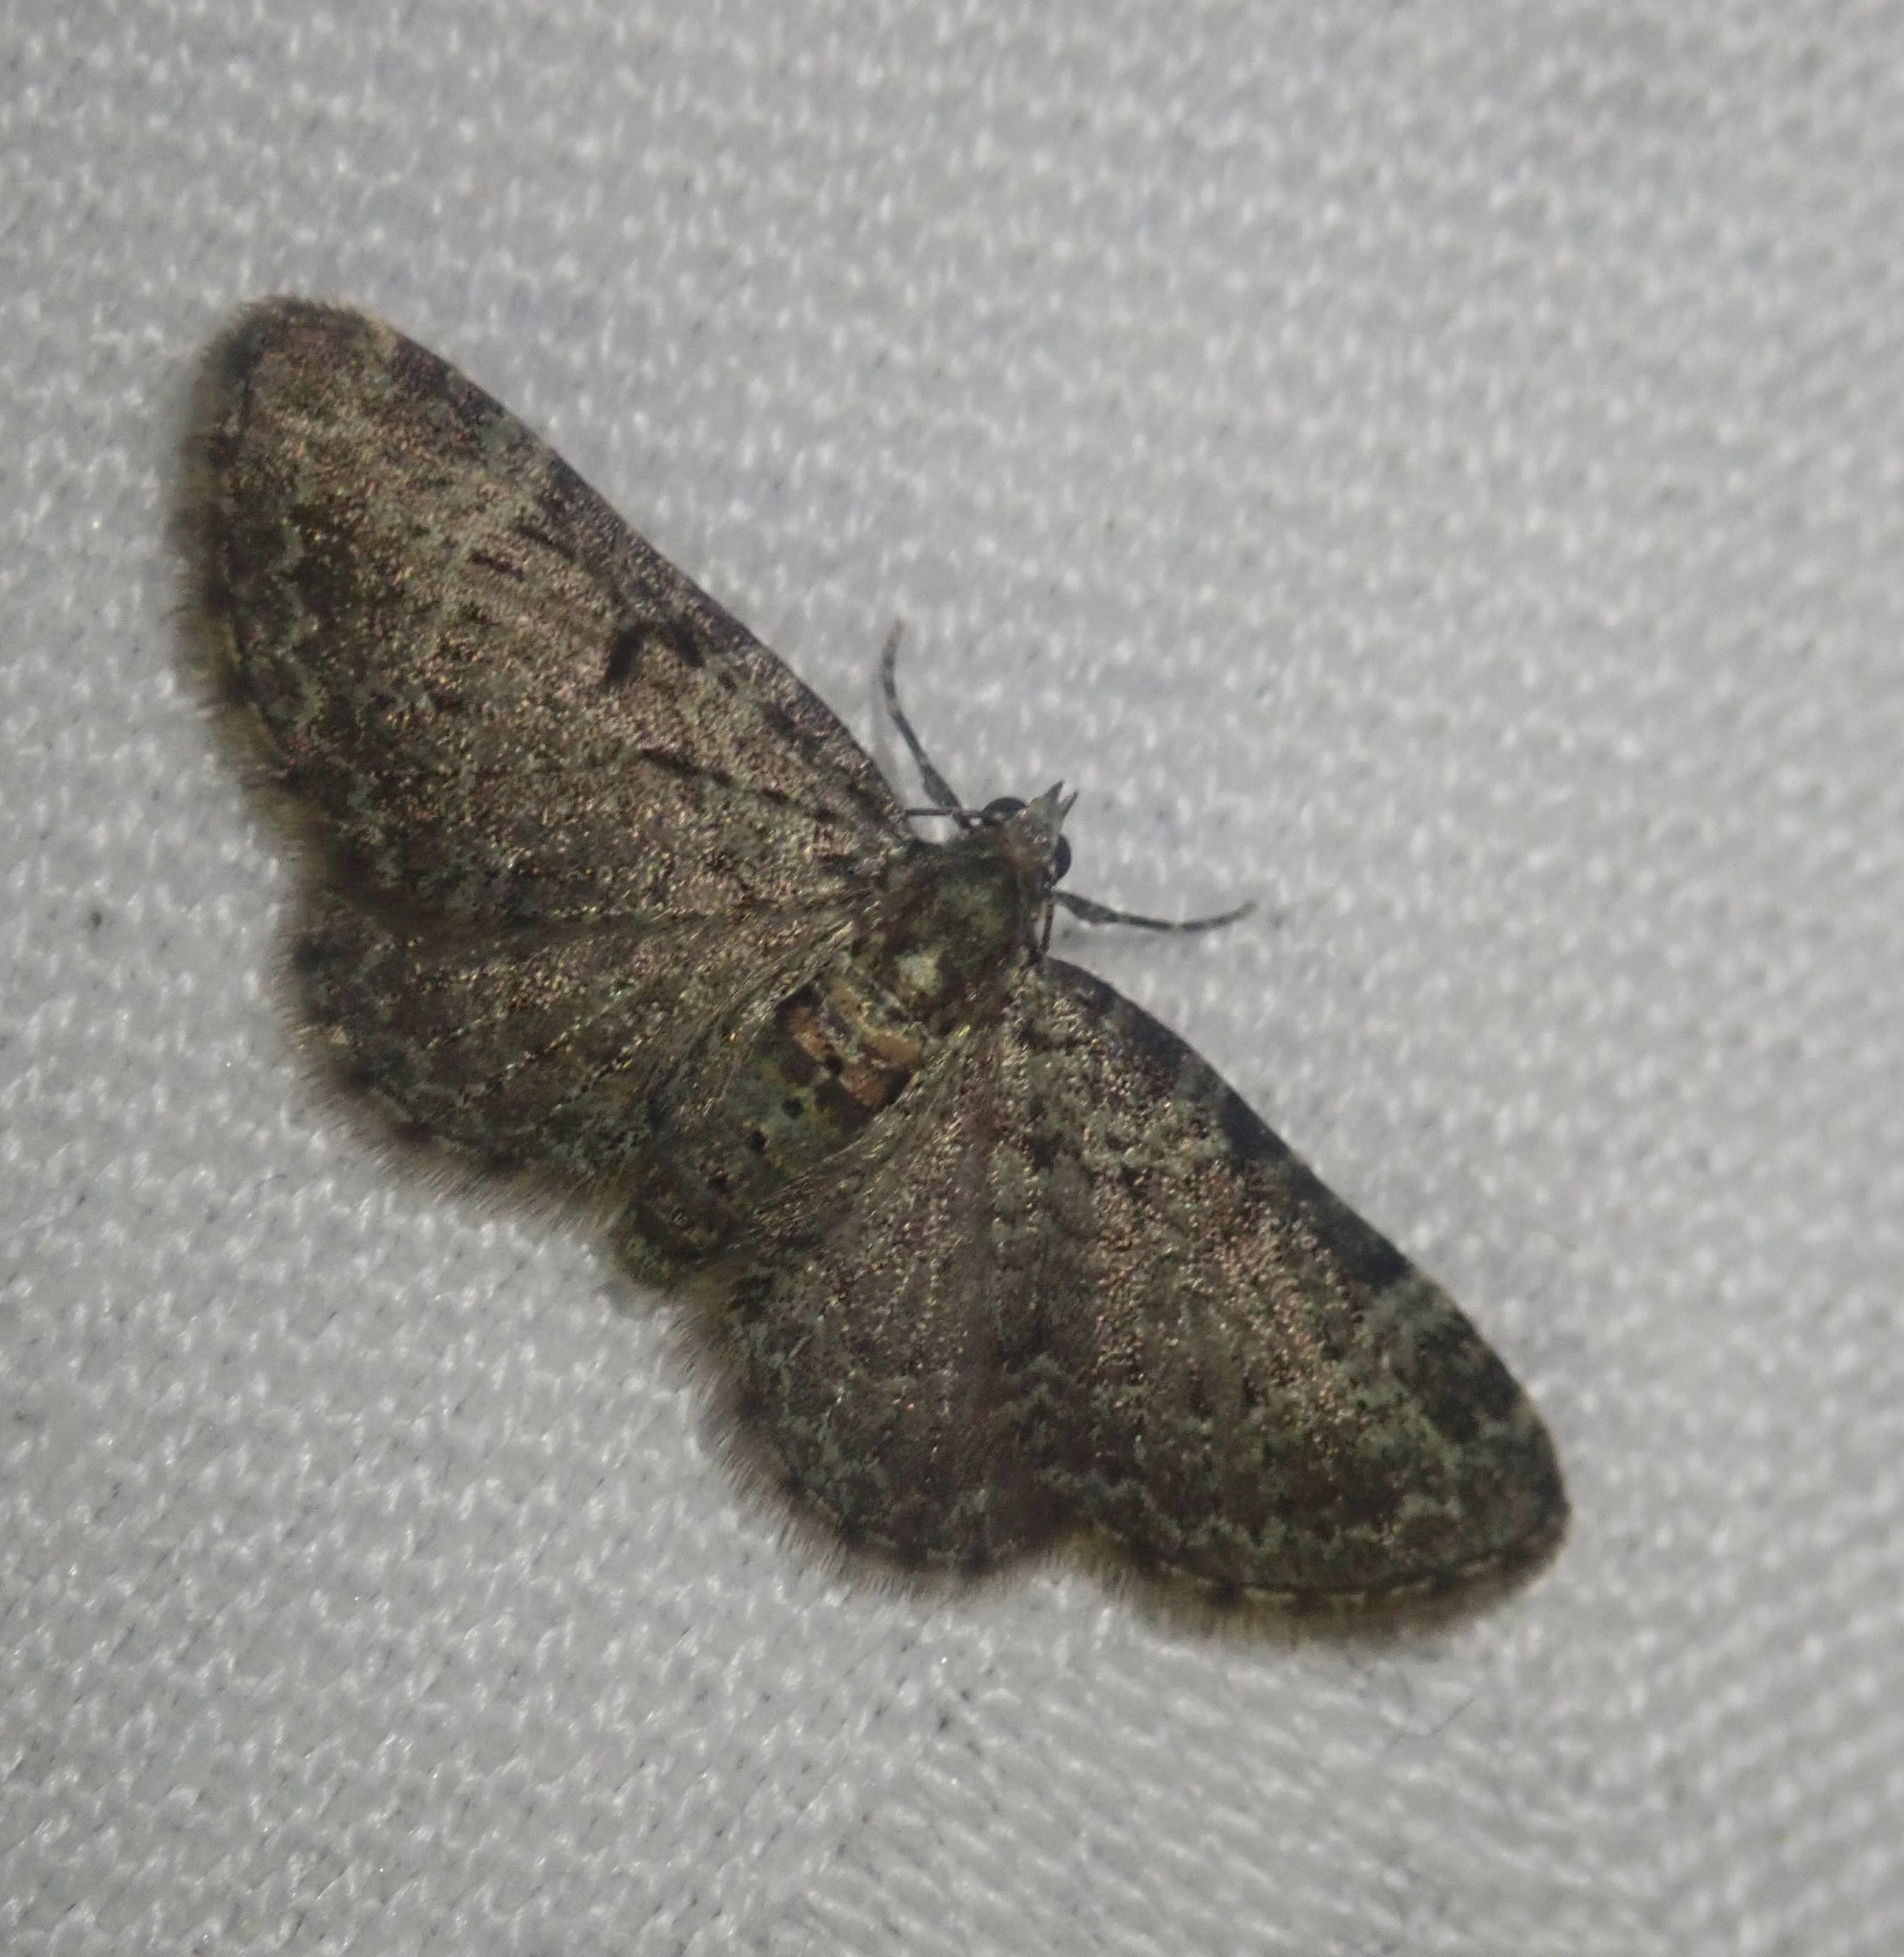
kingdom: Animalia
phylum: Arthropoda
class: Insecta
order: Lepidoptera
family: Geometridae
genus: Pasiphila
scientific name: Pasiphila rectangulata
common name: Green pug
